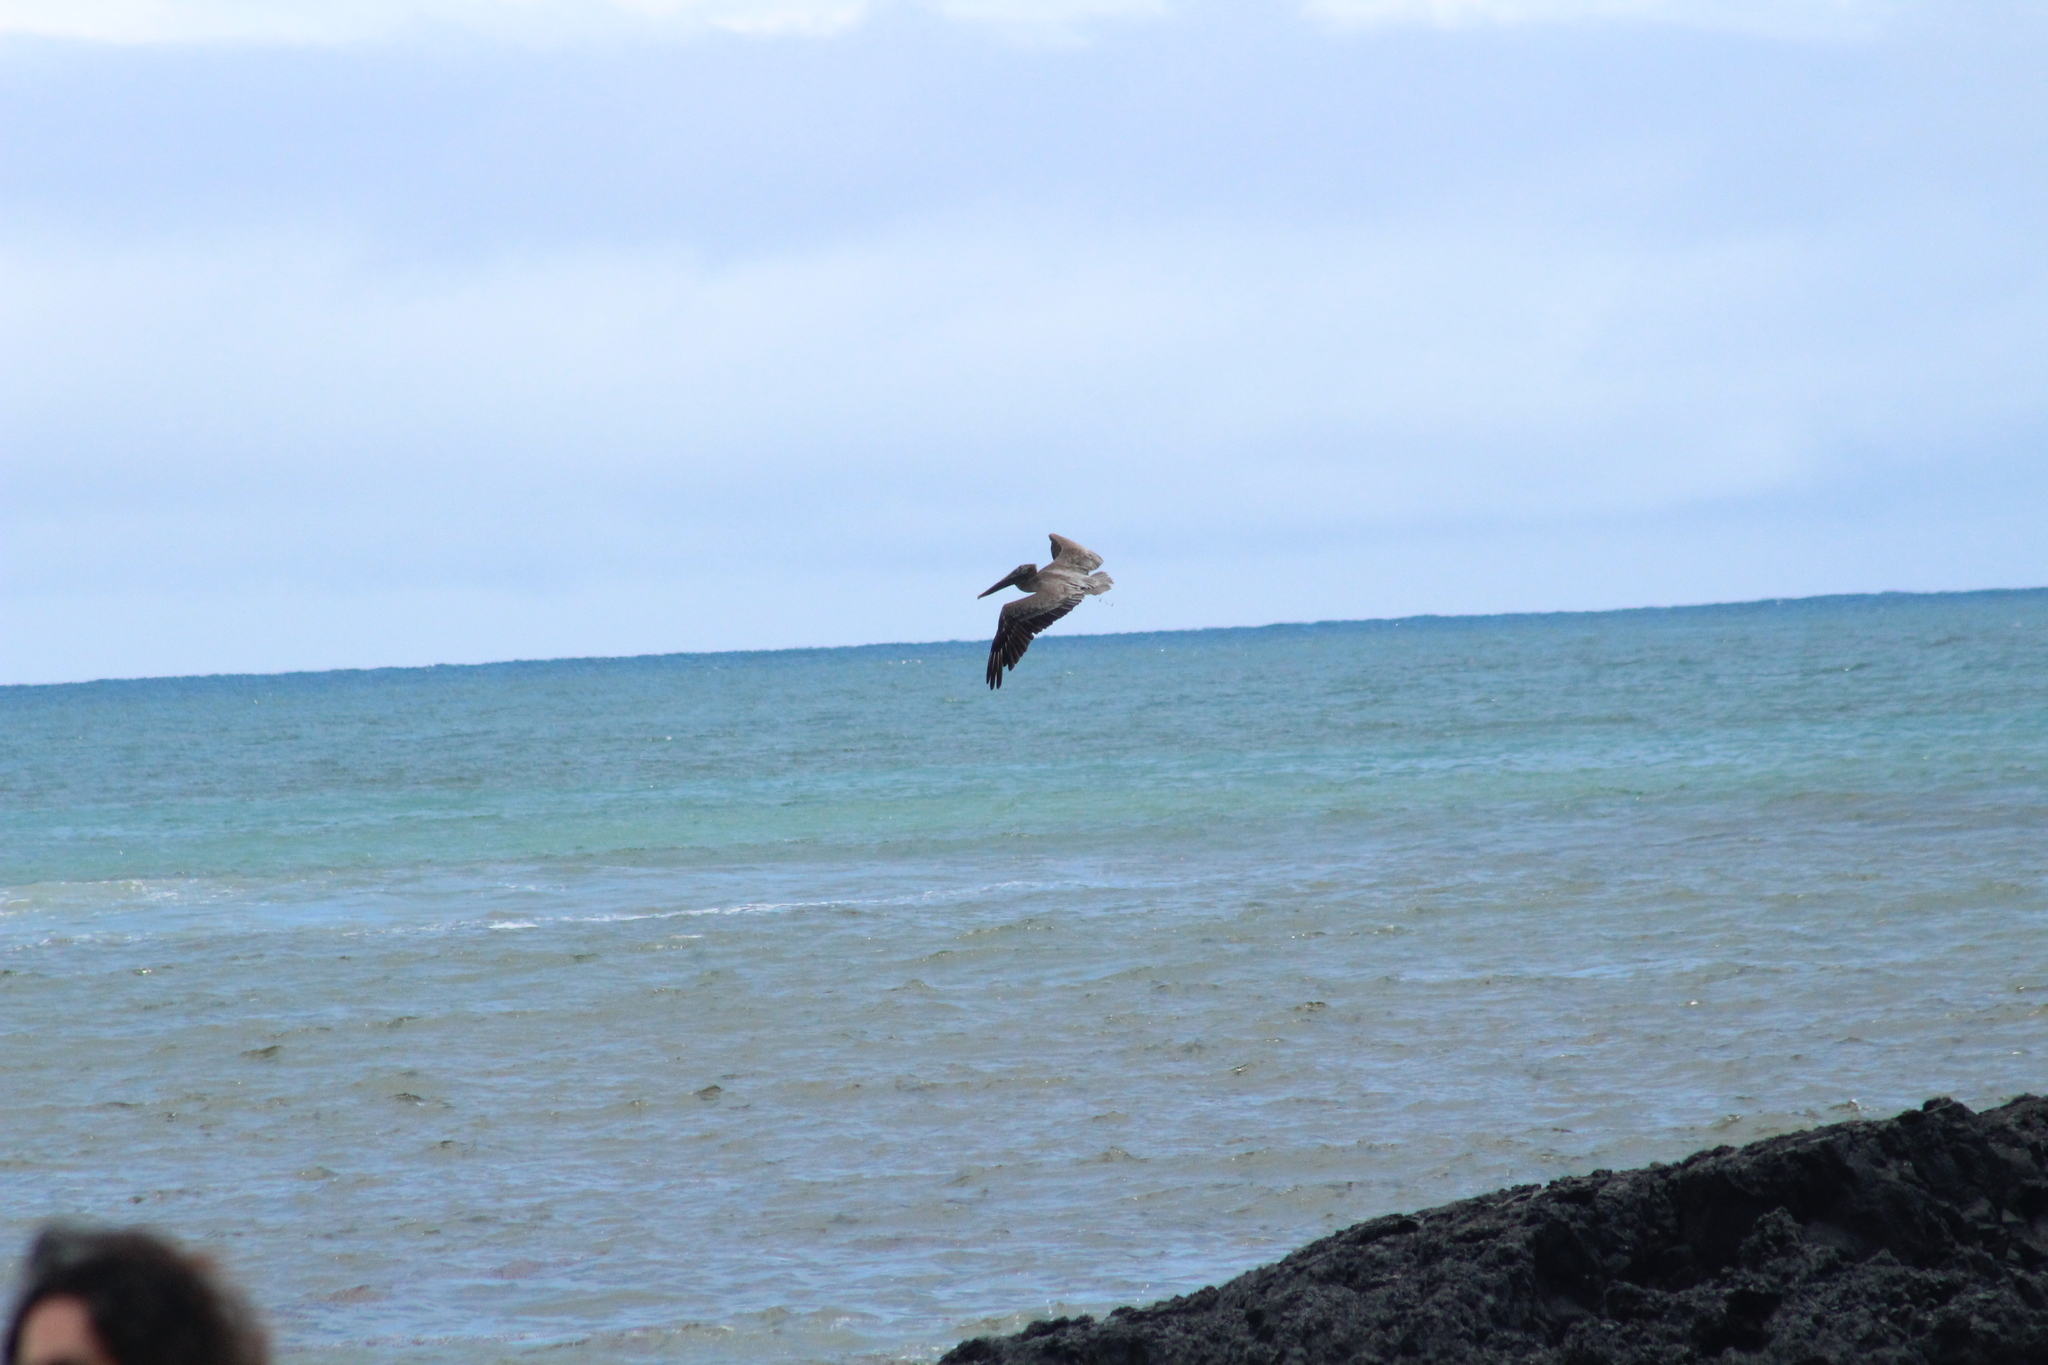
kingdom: Animalia
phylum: Chordata
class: Aves
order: Pelecaniformes
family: Pelecanidae
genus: Pelecanus
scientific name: Pelecanus occidentalis
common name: Brown pelican
